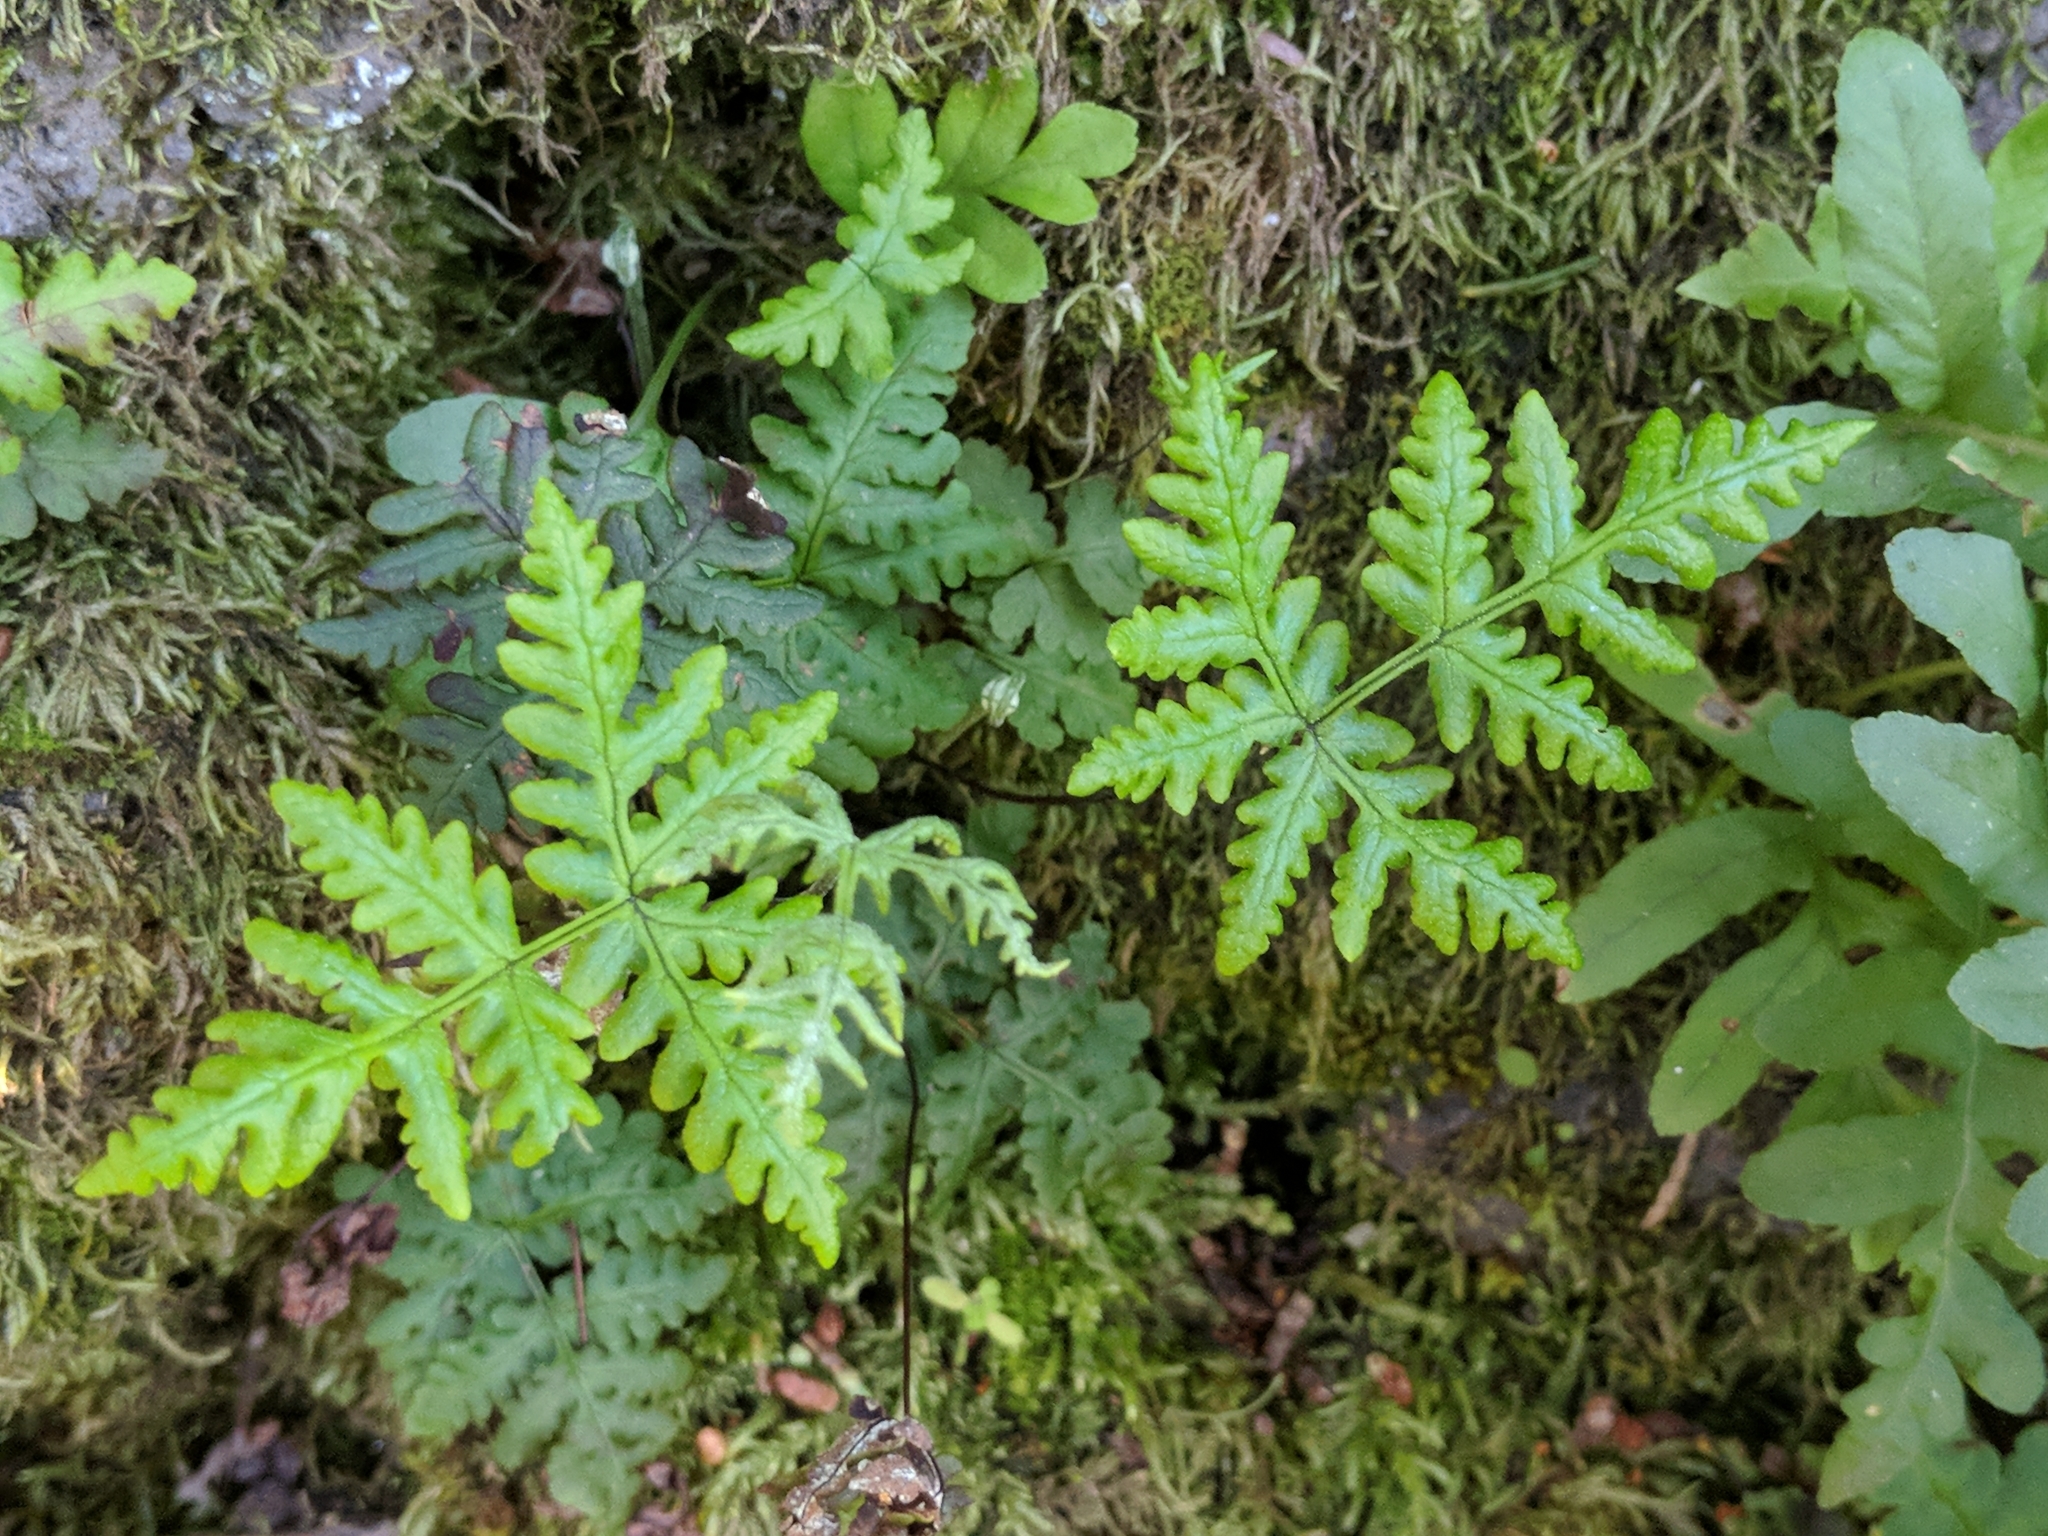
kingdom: Plantae
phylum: Tracheophyta
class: Polypodiopsida
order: Polypodiales
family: Pteridaceae
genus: Pentagramma
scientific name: Pentagramma triangularis
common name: Gold fern
